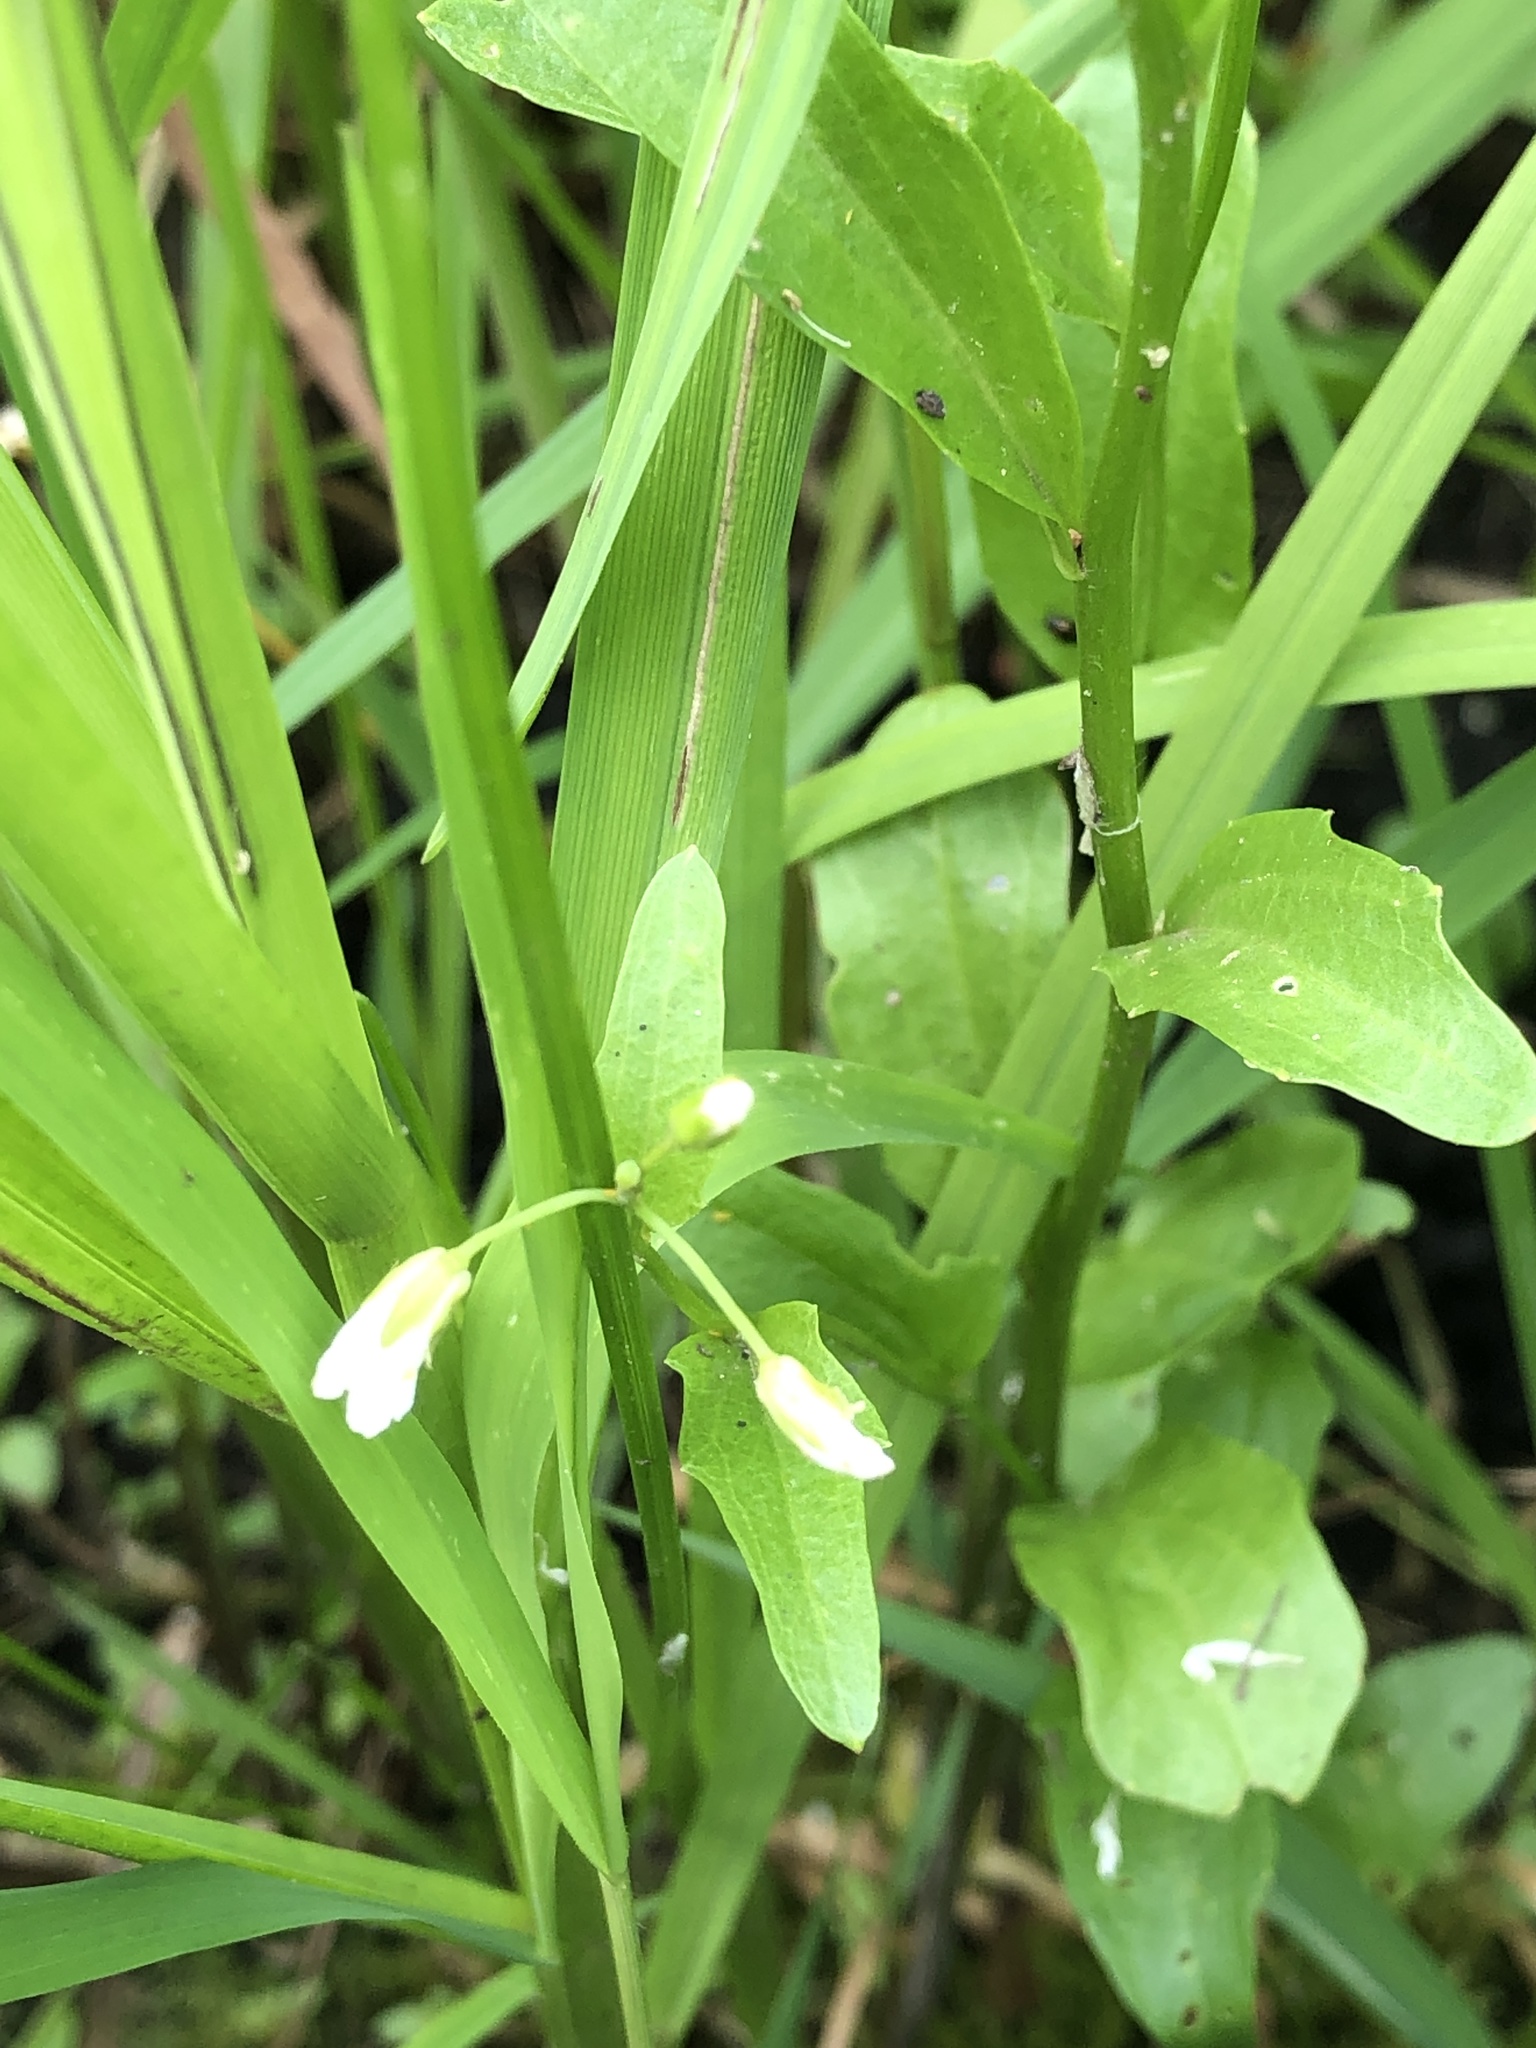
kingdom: Plantae
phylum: Tracheophyta
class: Magnoliopsida
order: Brassicales
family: Brassicaceae
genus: Cardamine
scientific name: Cardamine bulbosa
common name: Spring cress
